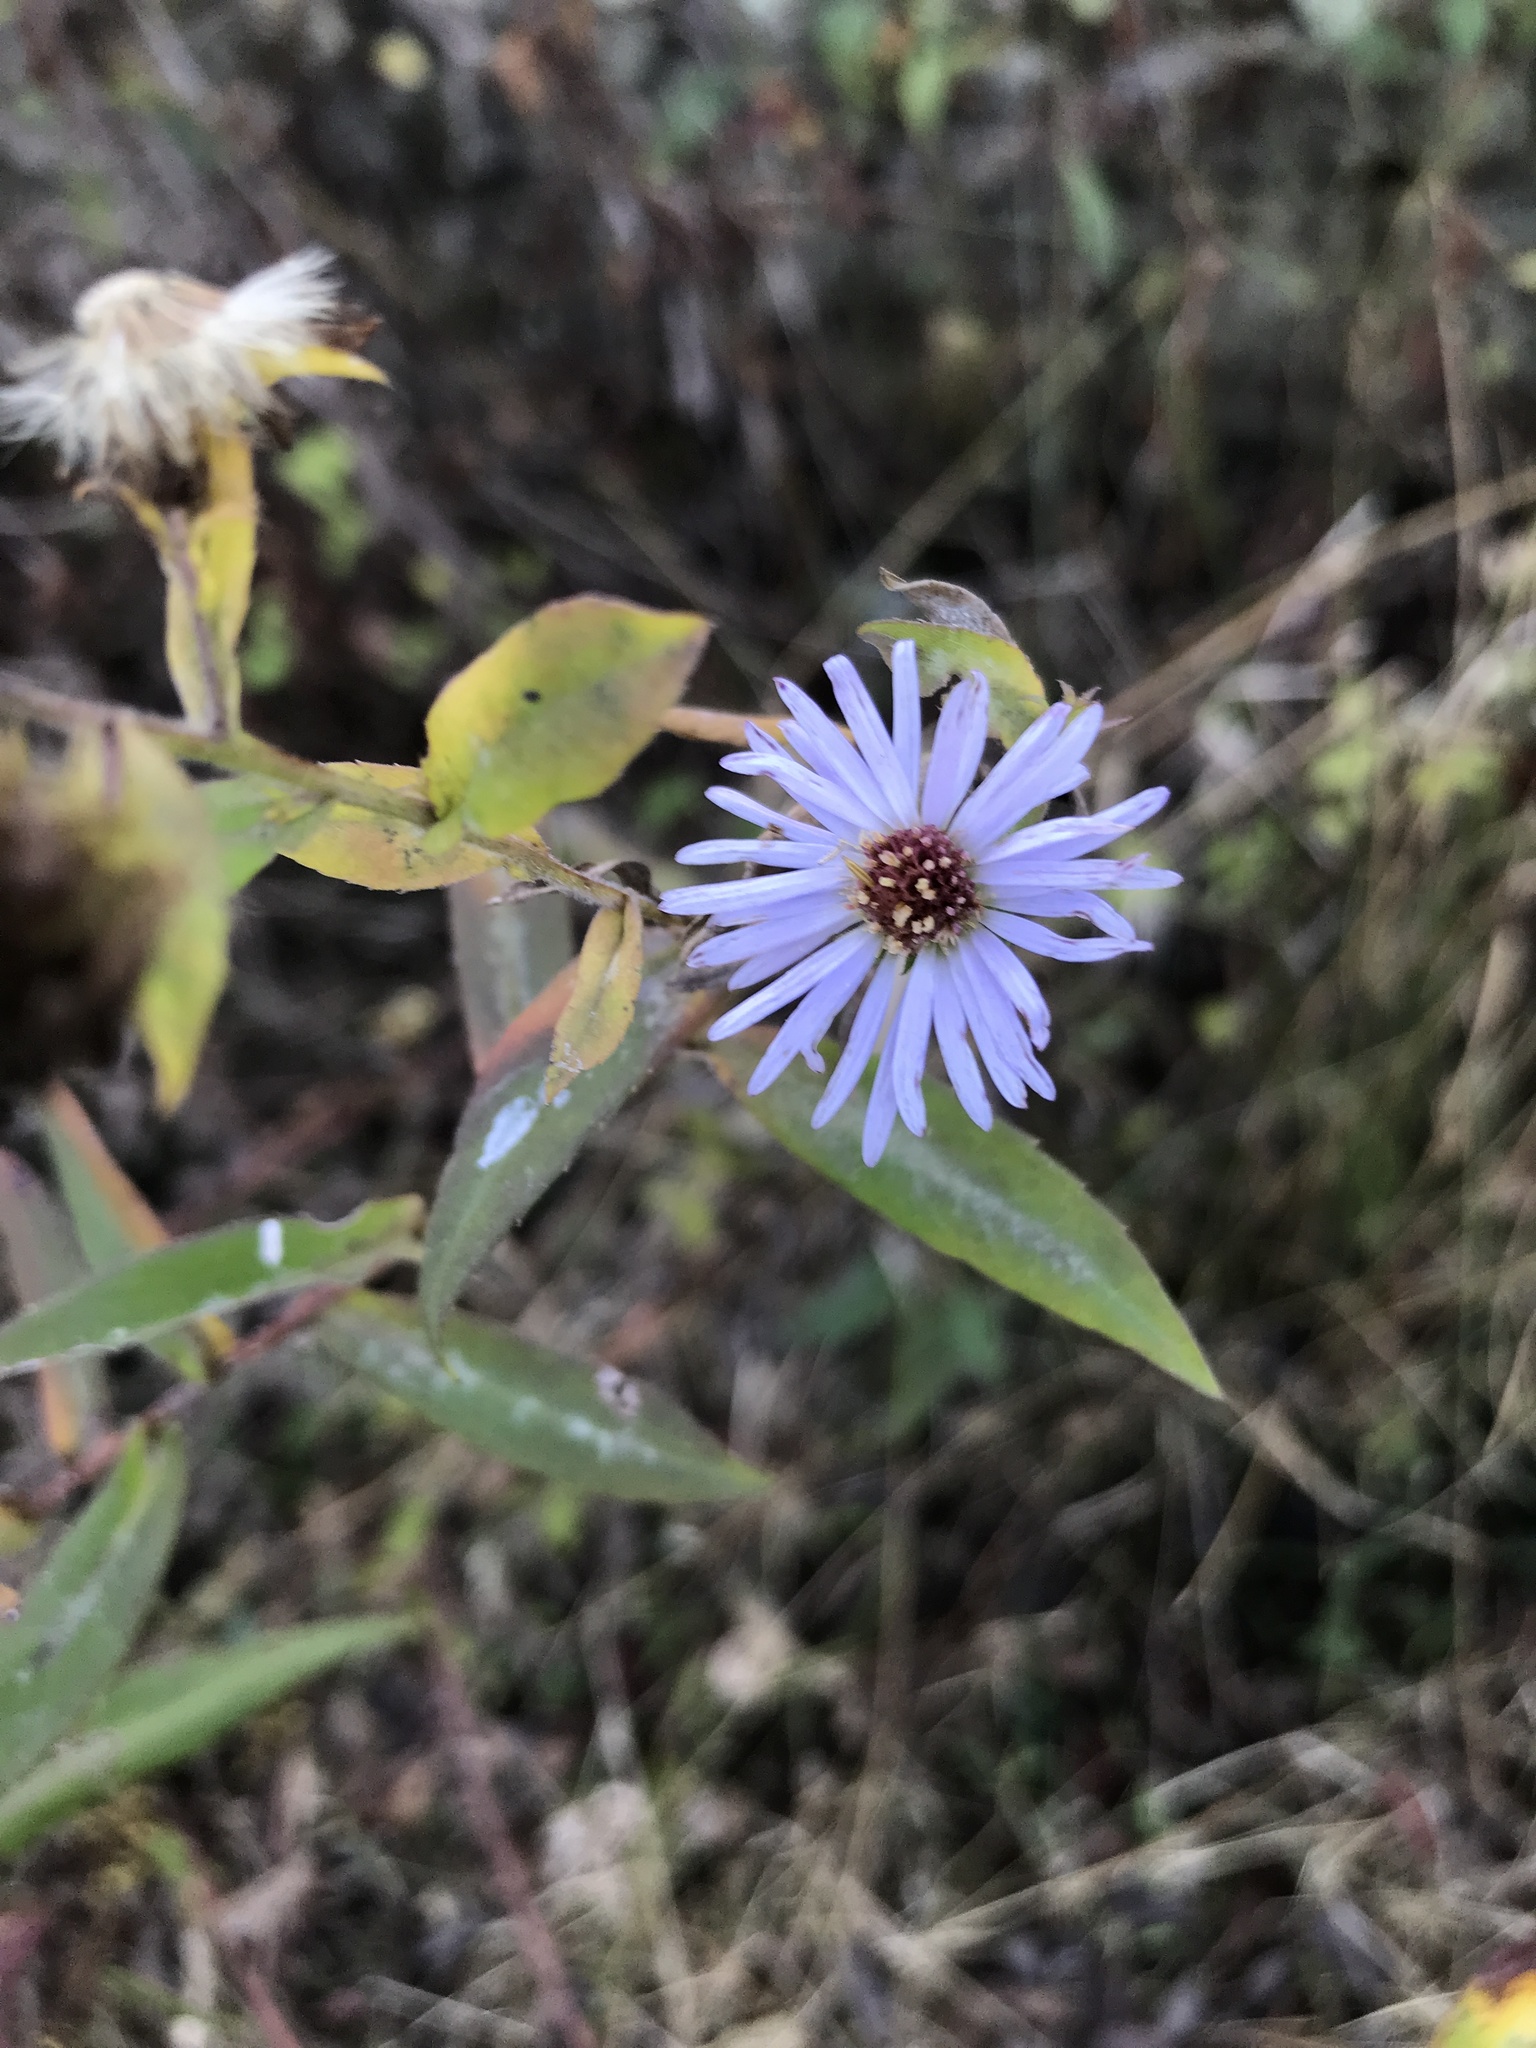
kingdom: Plantae
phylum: Tracheophyta
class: Magnoliopsida
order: Asterales
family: Asteraceae
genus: Symphyotrichum
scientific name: Symphyotrichum puniceum
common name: Bog aster
